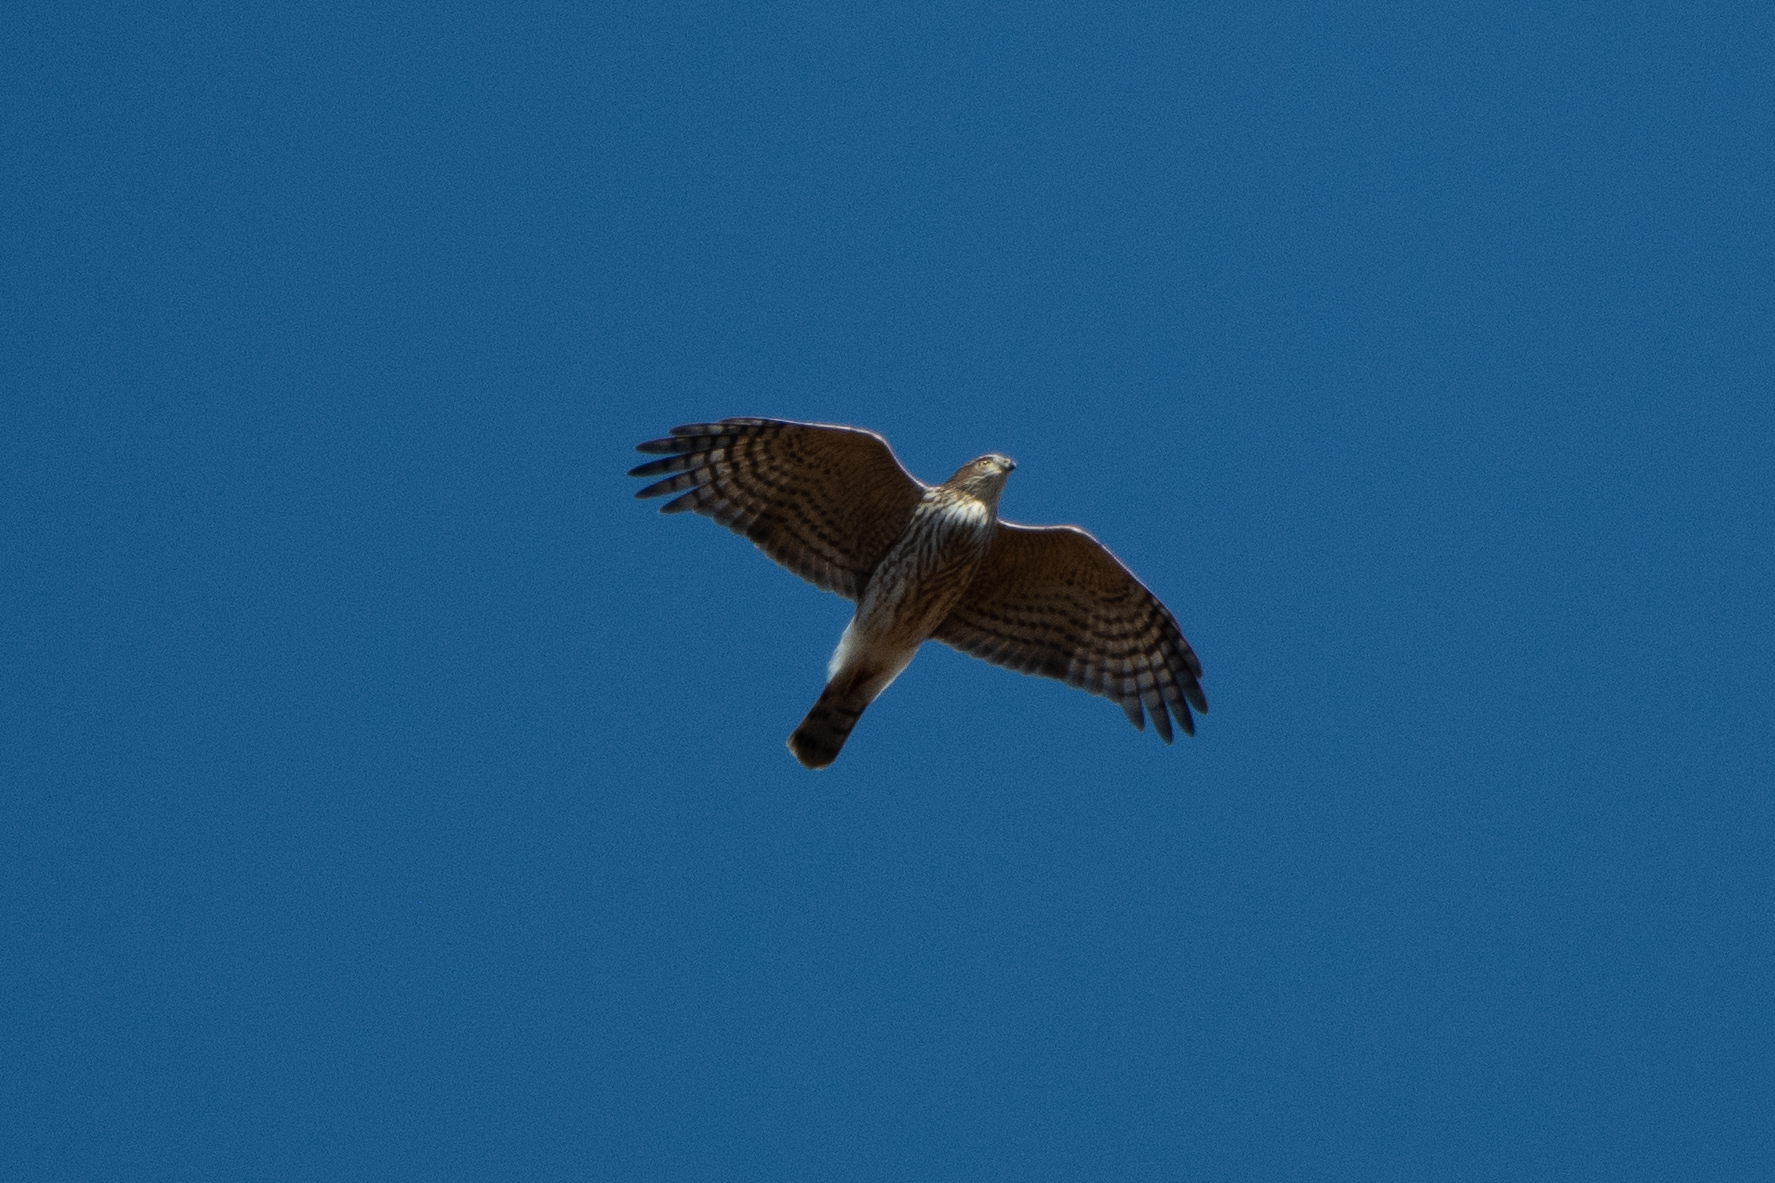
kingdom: Animalia
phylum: Chordata
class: Aves
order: Accipitriformes
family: Accipitridae
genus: Accipiter
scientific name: Accipiter cooperii
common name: Cooper's hawk
